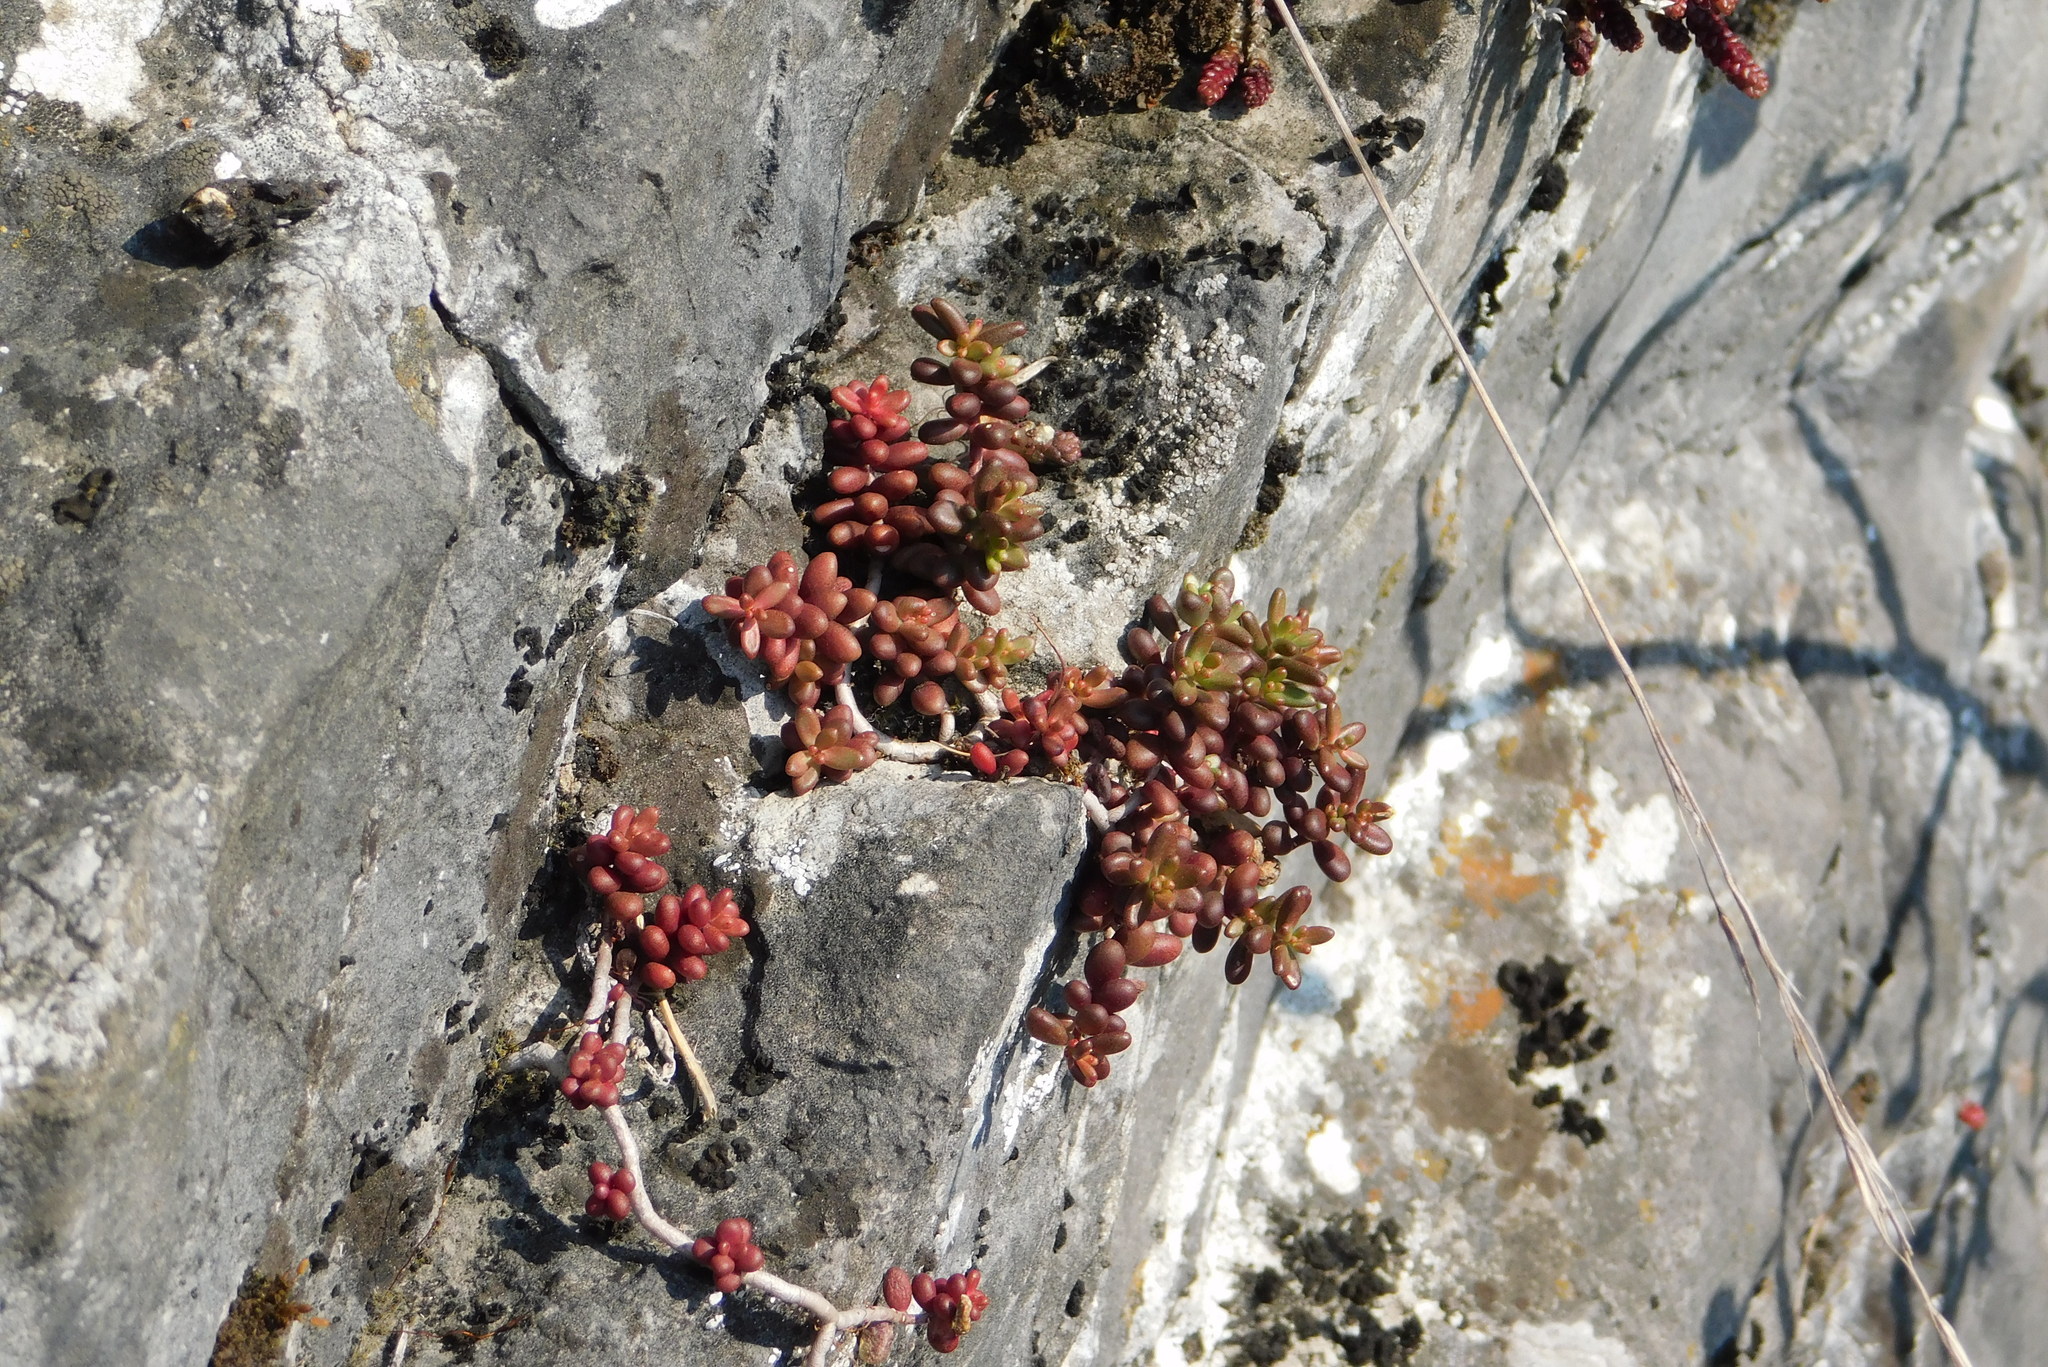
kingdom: Plantae
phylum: Tracheophyta
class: Magnoliopsida
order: Saxifragales
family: Crassulaceae
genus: Sedum
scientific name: Sedum album
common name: White stonecrop
